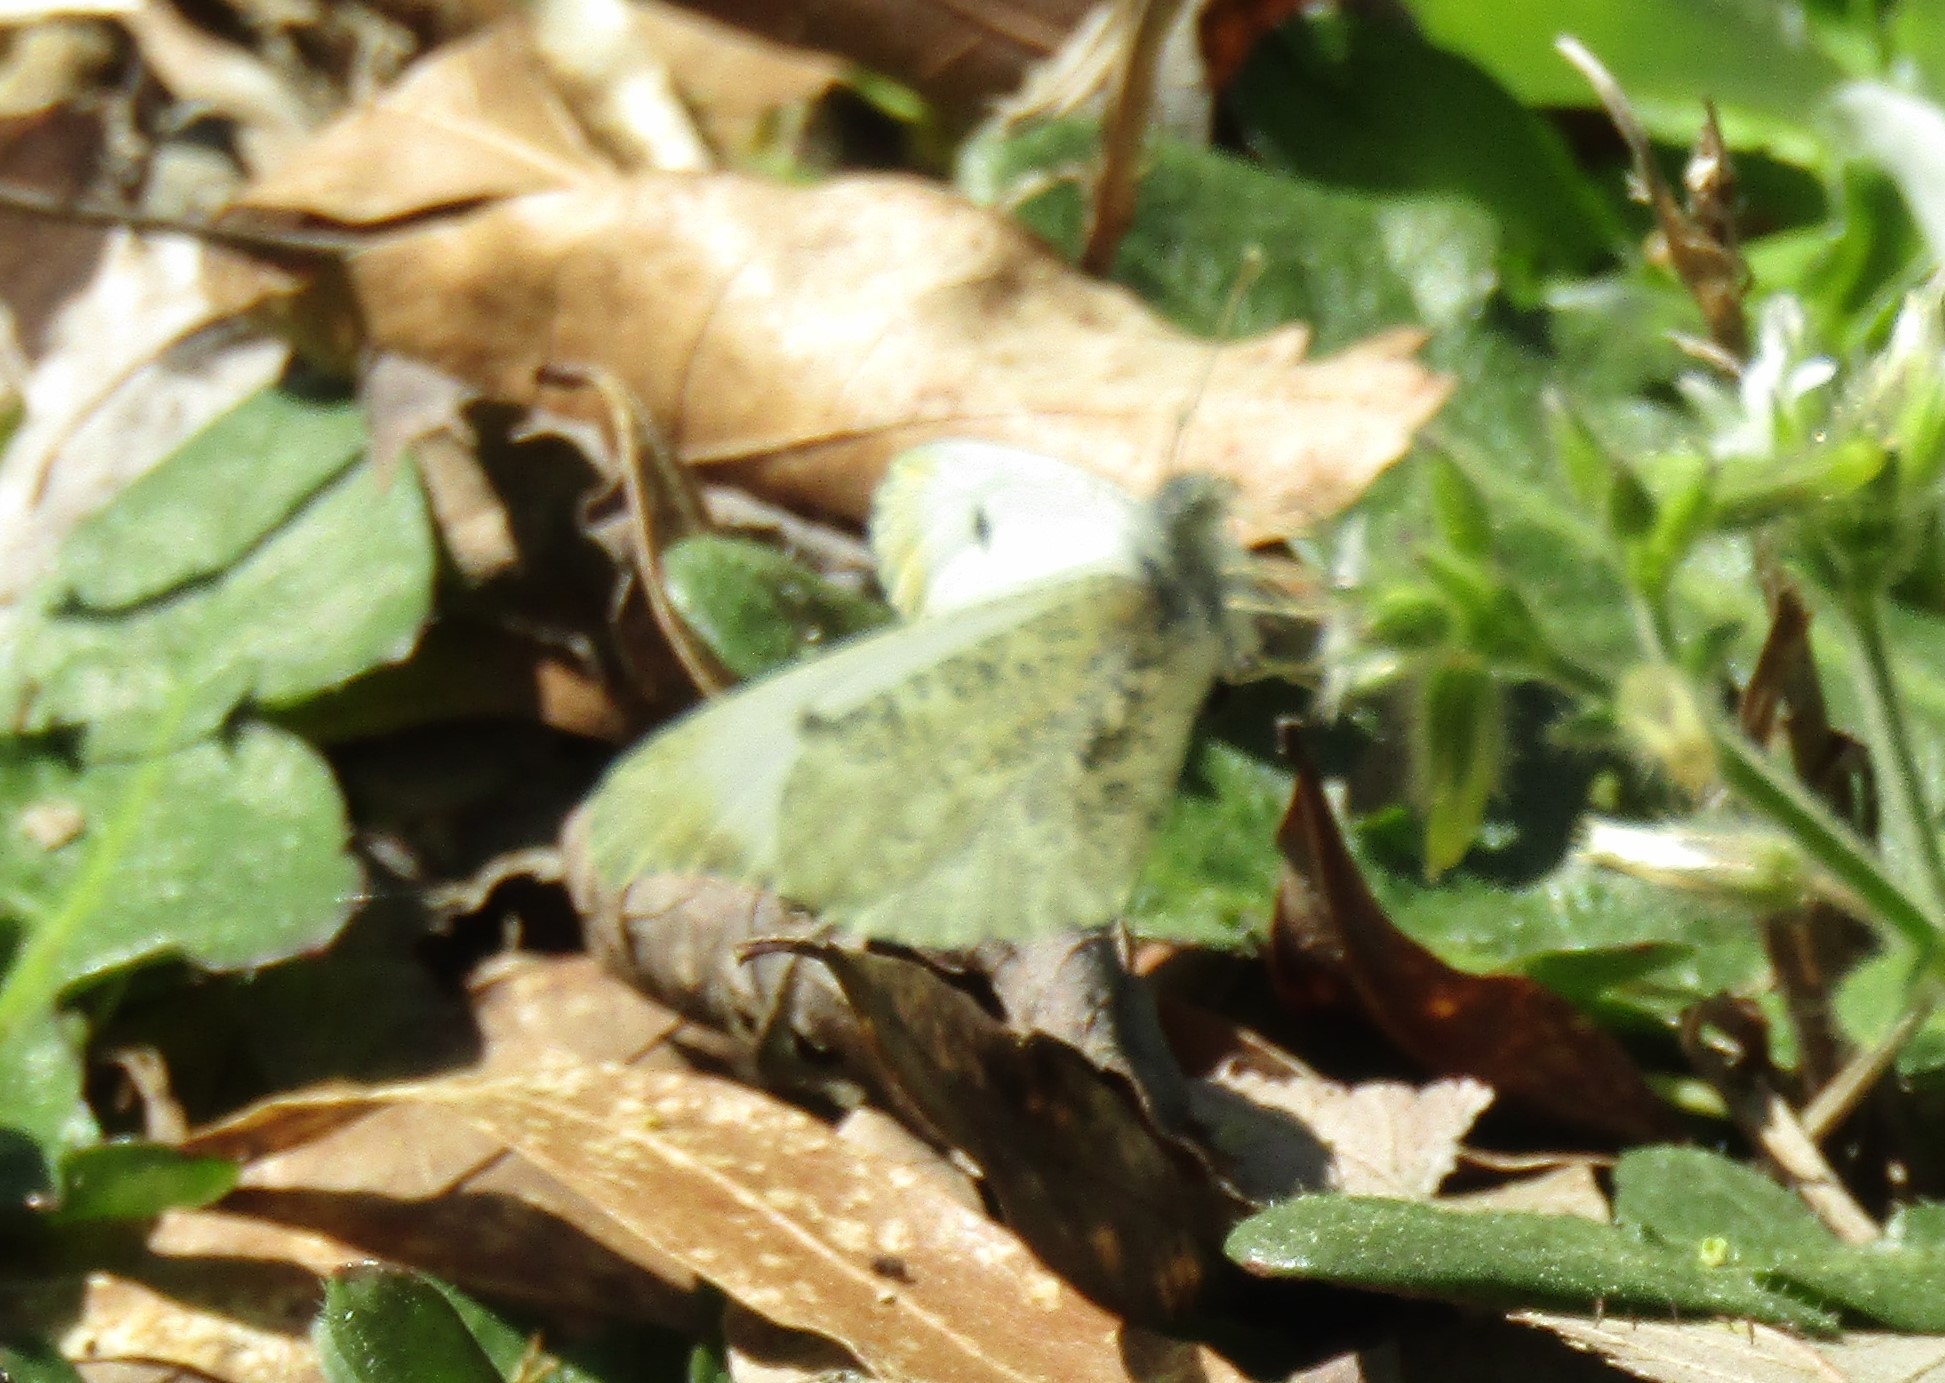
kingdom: Animalia
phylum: Arthropoda
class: Insecta
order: Lepidoptera
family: Pieridae
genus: Anthocharis
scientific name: Anthocharis midea
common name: Falcate orangetip
